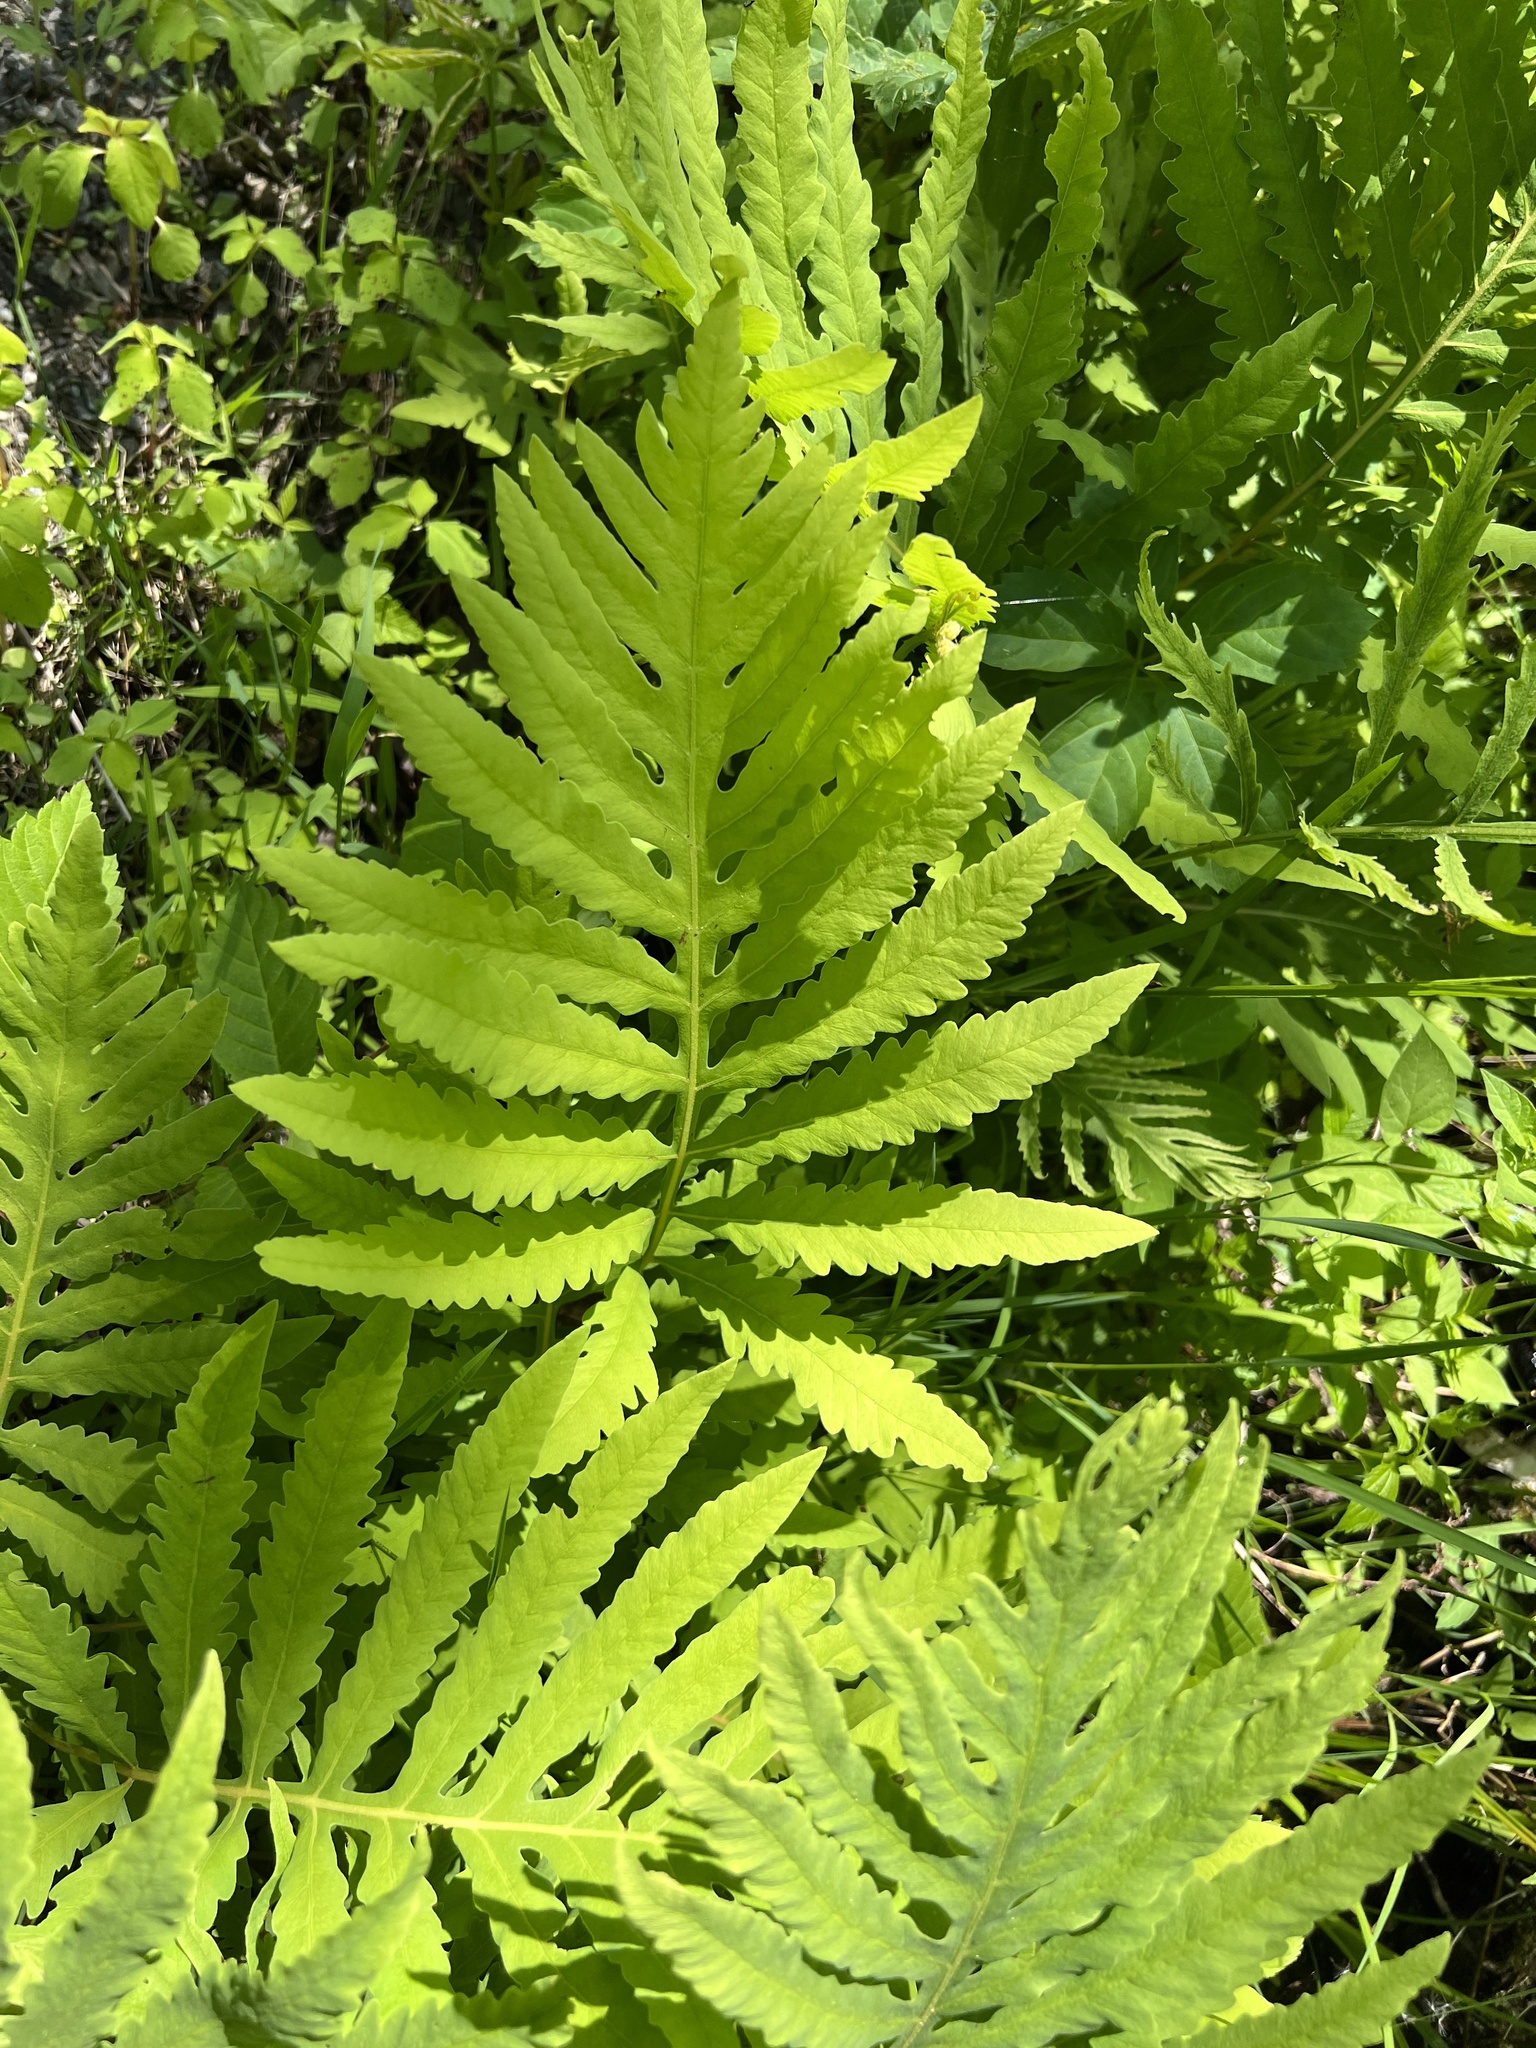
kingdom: Plantae
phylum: Tracheophyta
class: Polypodiopsida
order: Polypodiales
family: Onocleaceae
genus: Onoclea
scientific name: Onoclea sensibilis
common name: Sensitive fern
